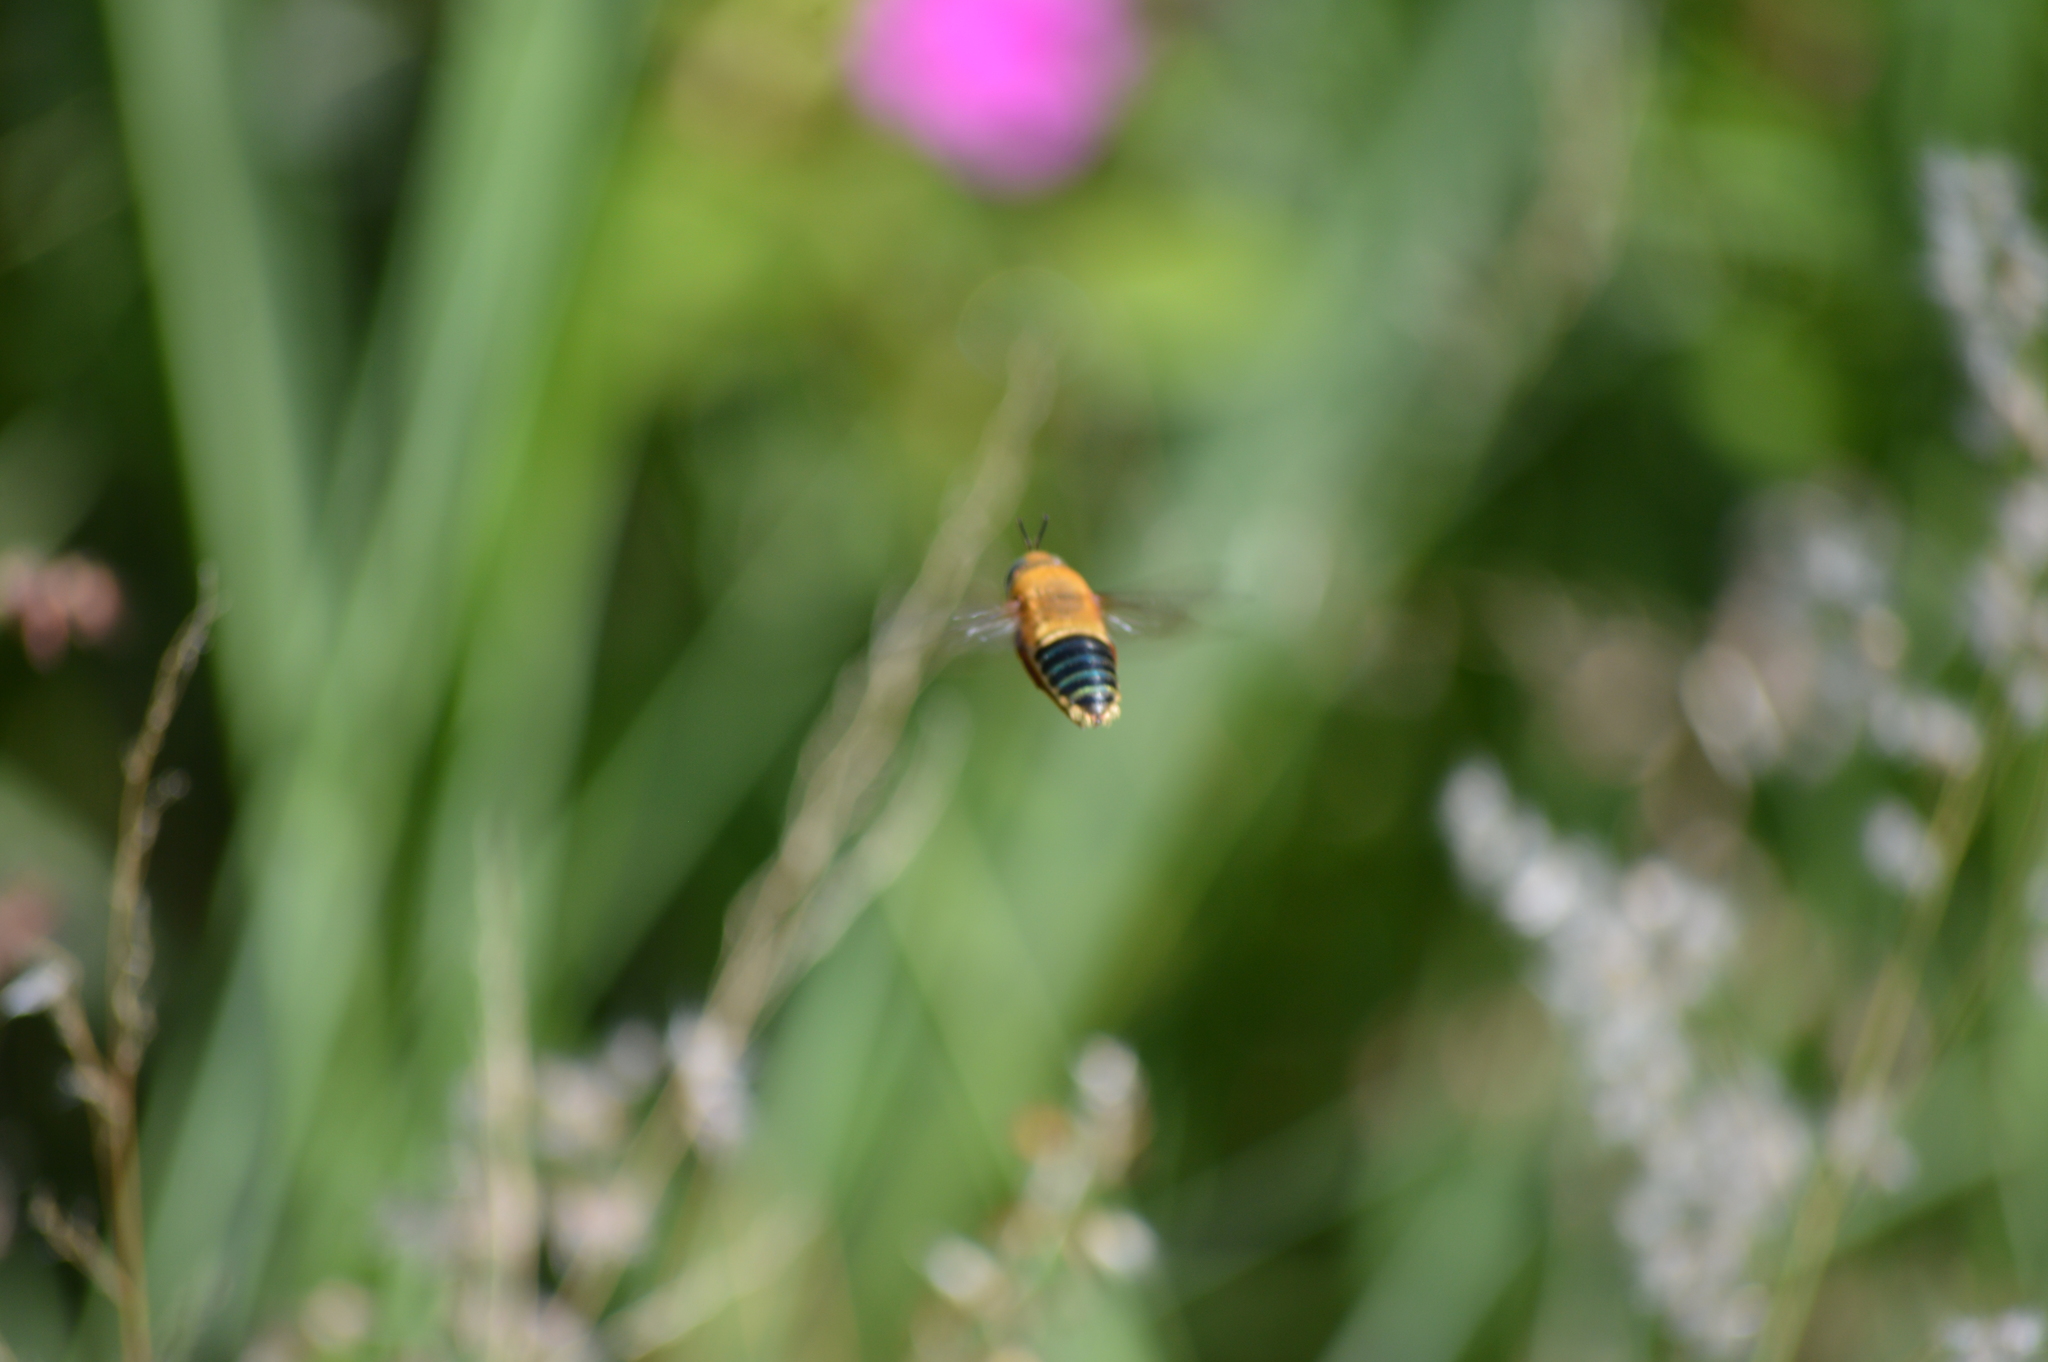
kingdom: Animalia
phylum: Arthropoda
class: Insecta
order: Hymenoptera
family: Andrenidae
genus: Oxaea
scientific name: Oxaea flavescens
